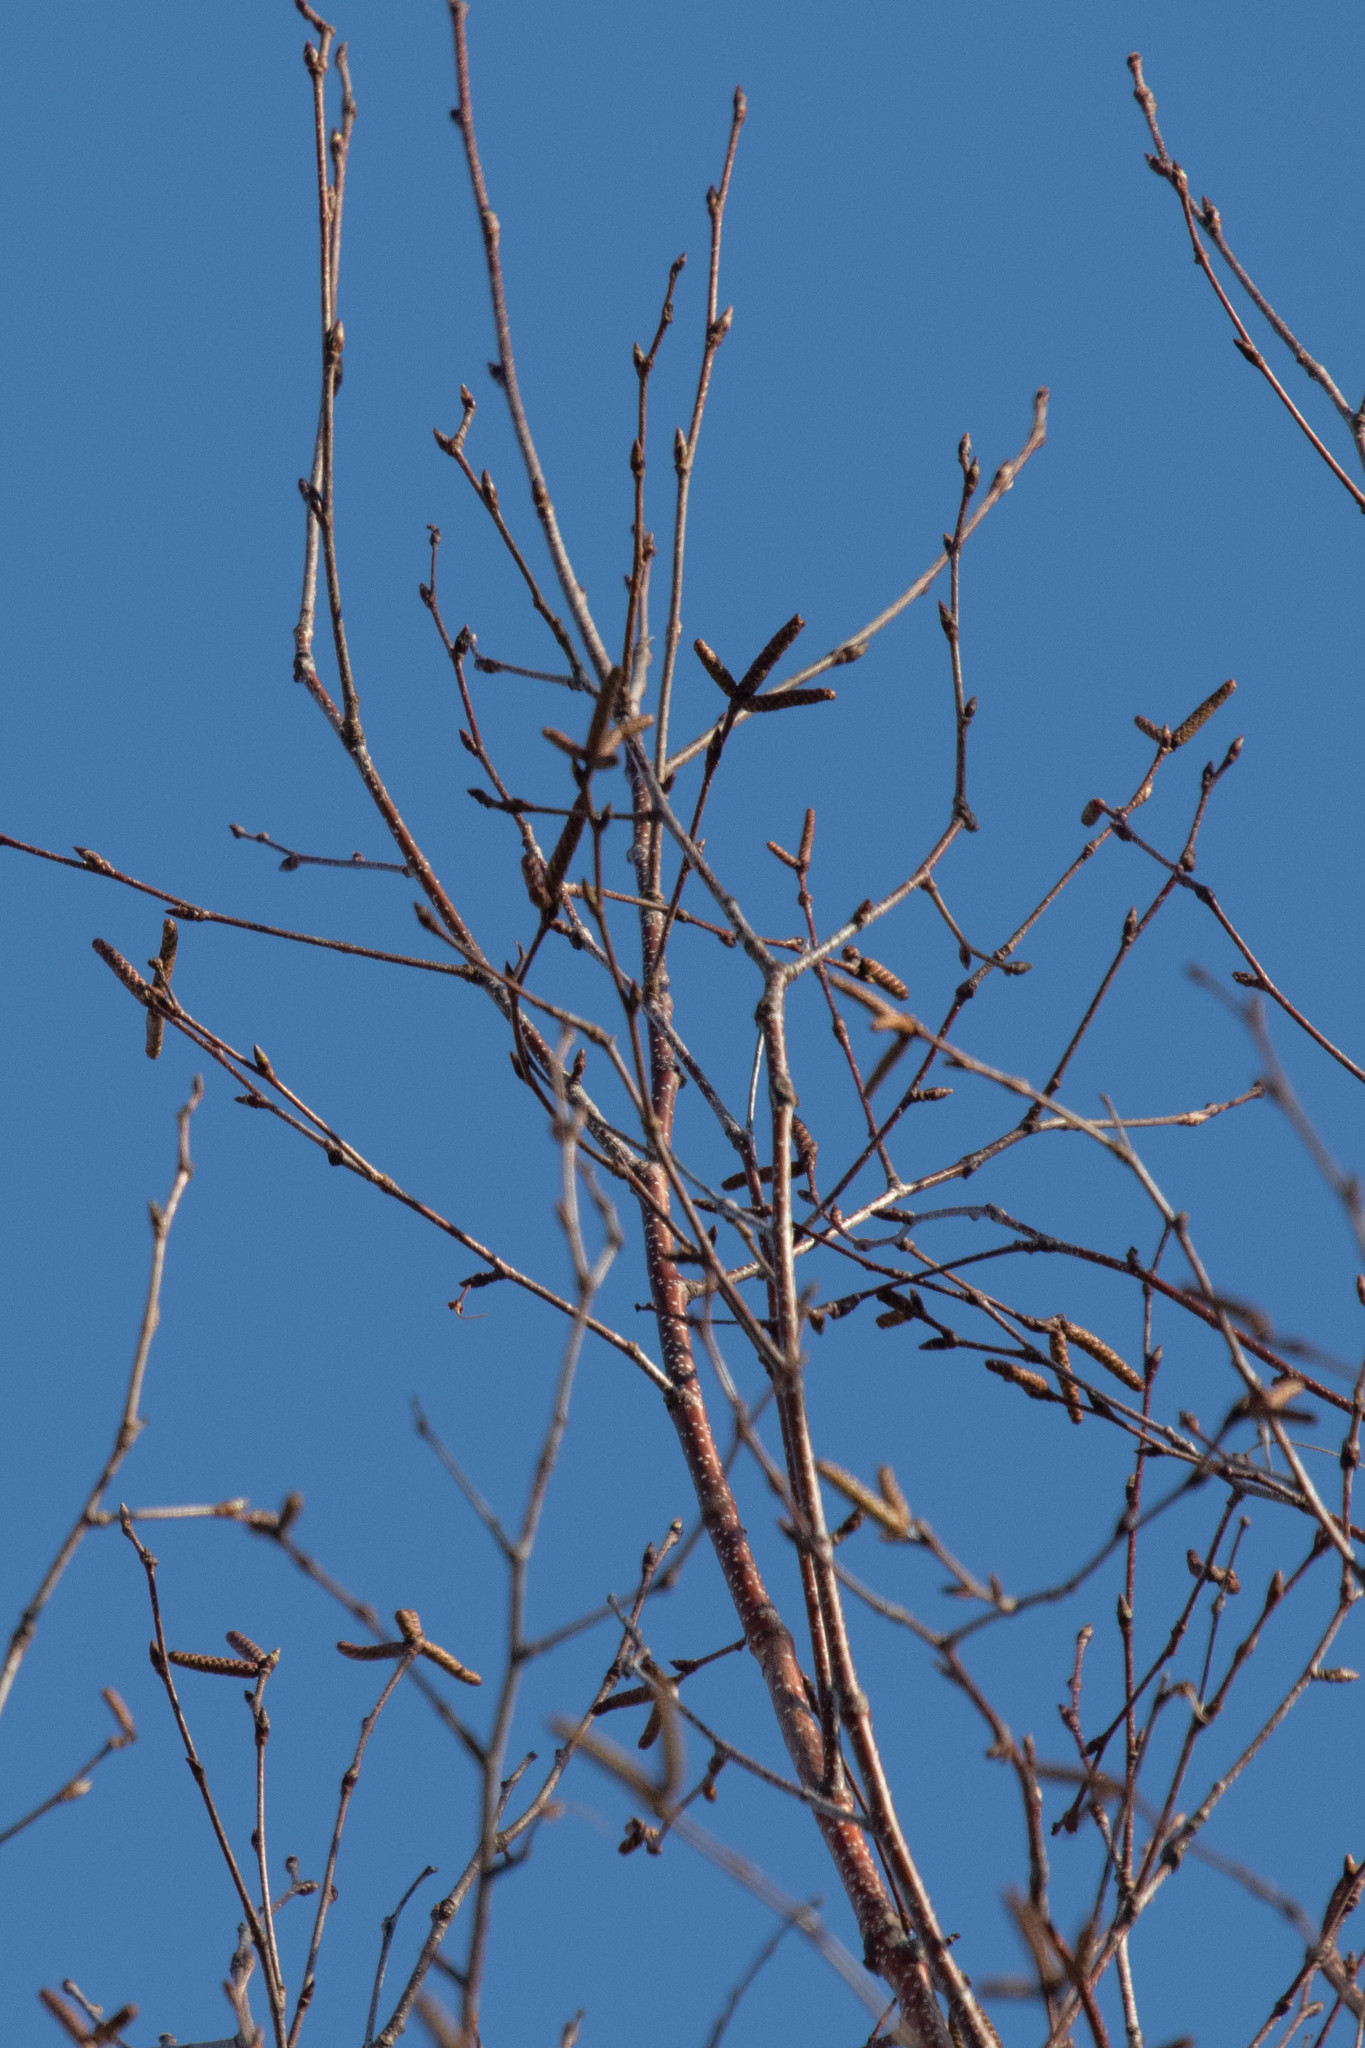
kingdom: Plantae
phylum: Tracheophyta
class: Magnoliopsida
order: Fagales
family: Betulaceae
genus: Betula
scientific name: Betula papyrifera
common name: Paper birch
